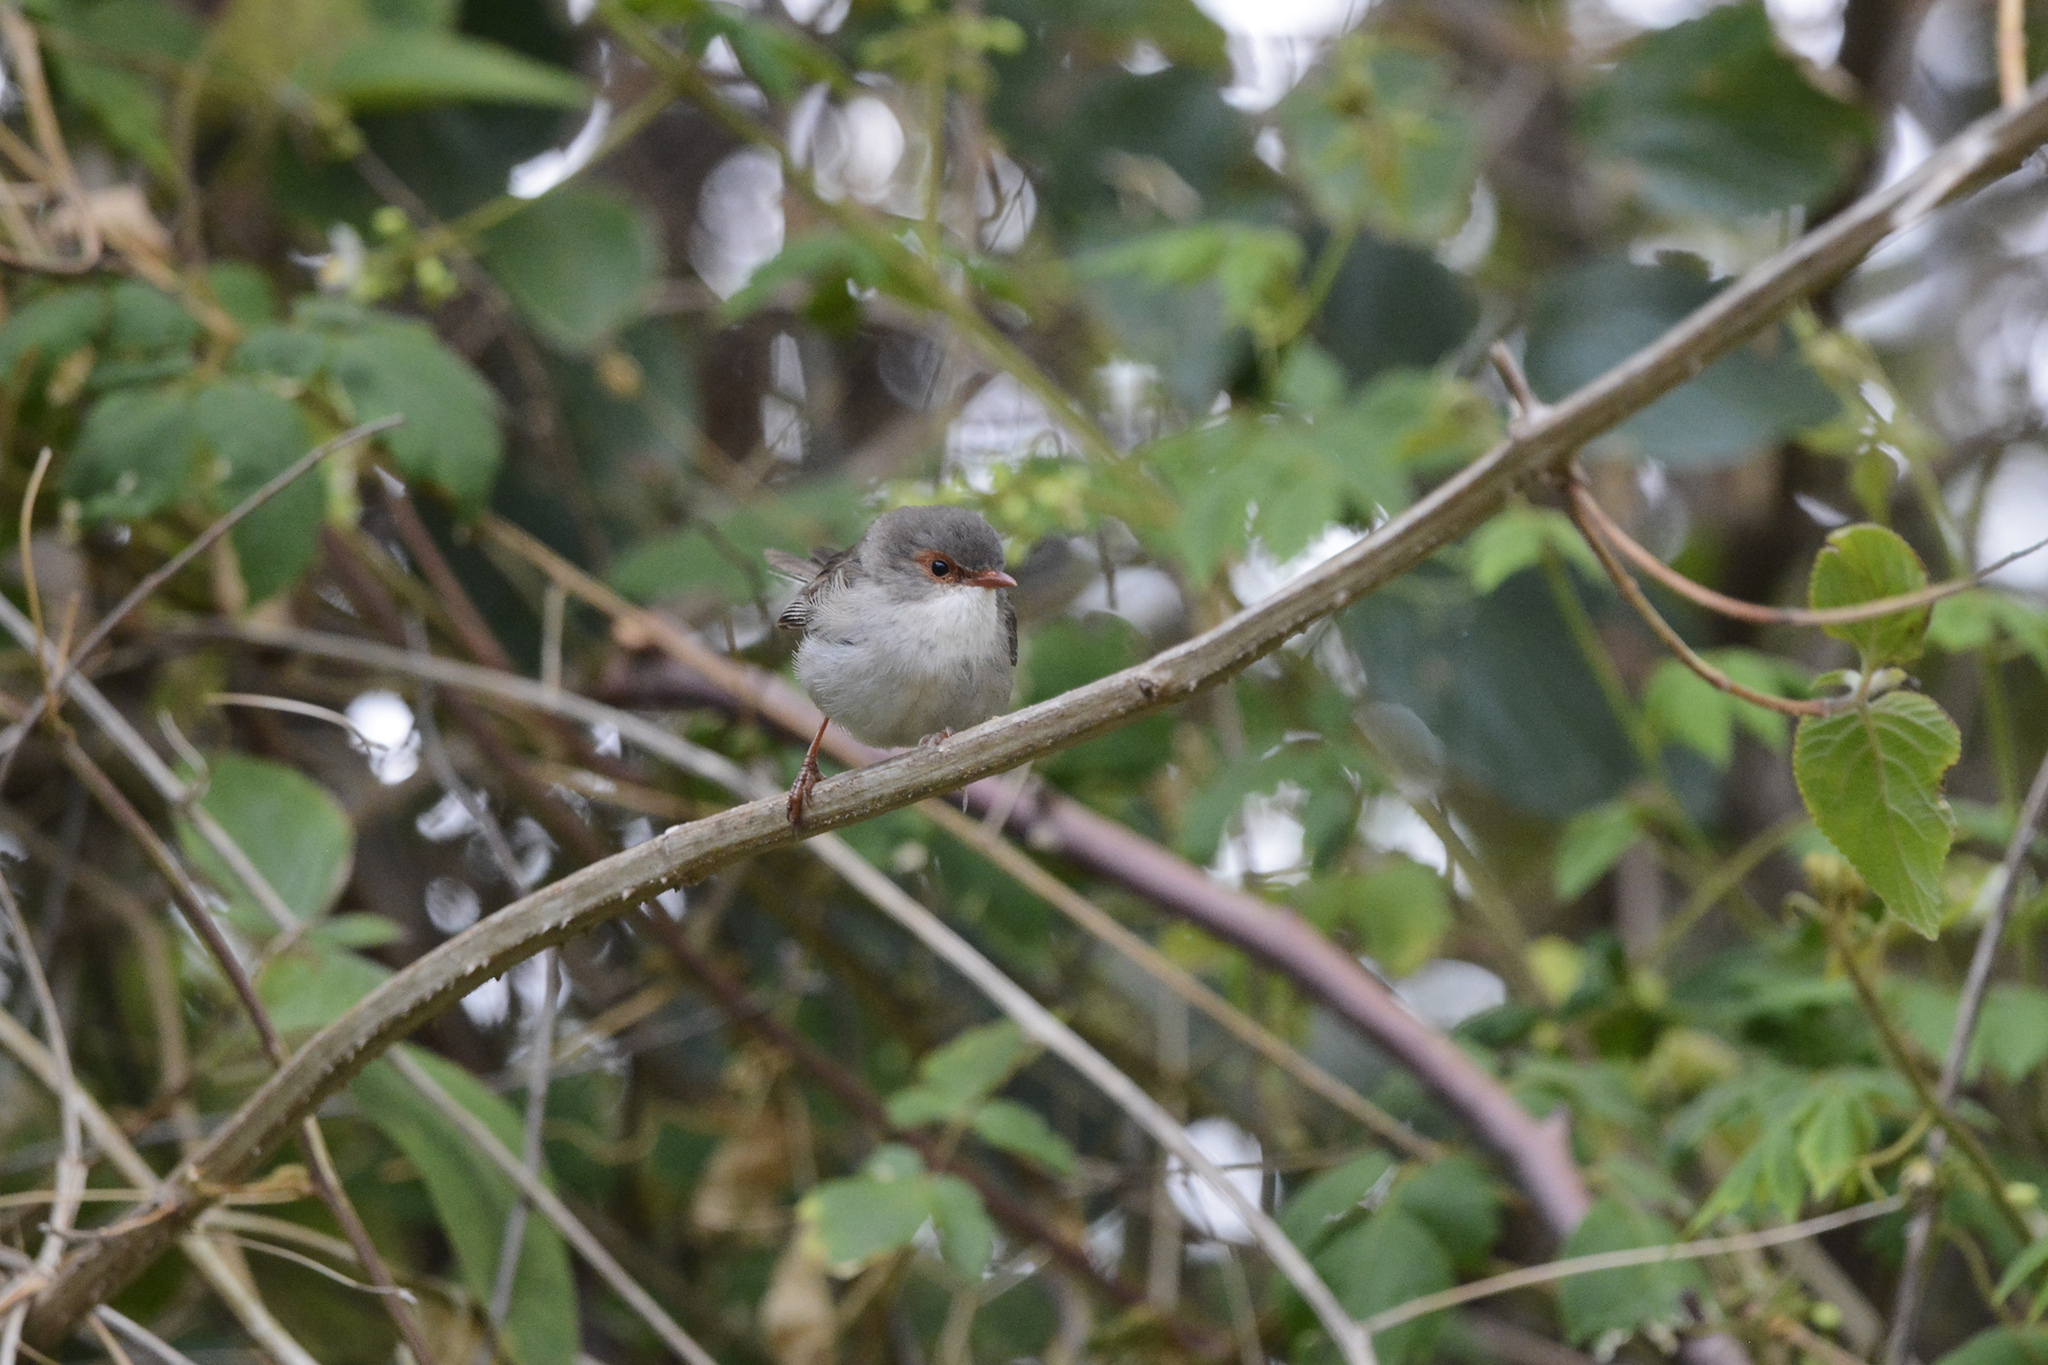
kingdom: Animalia
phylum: Chordata
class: Aves
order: Passeriformes
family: Maluridae
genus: Malurus
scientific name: Malurus cyaneus
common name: Superb fairywren
